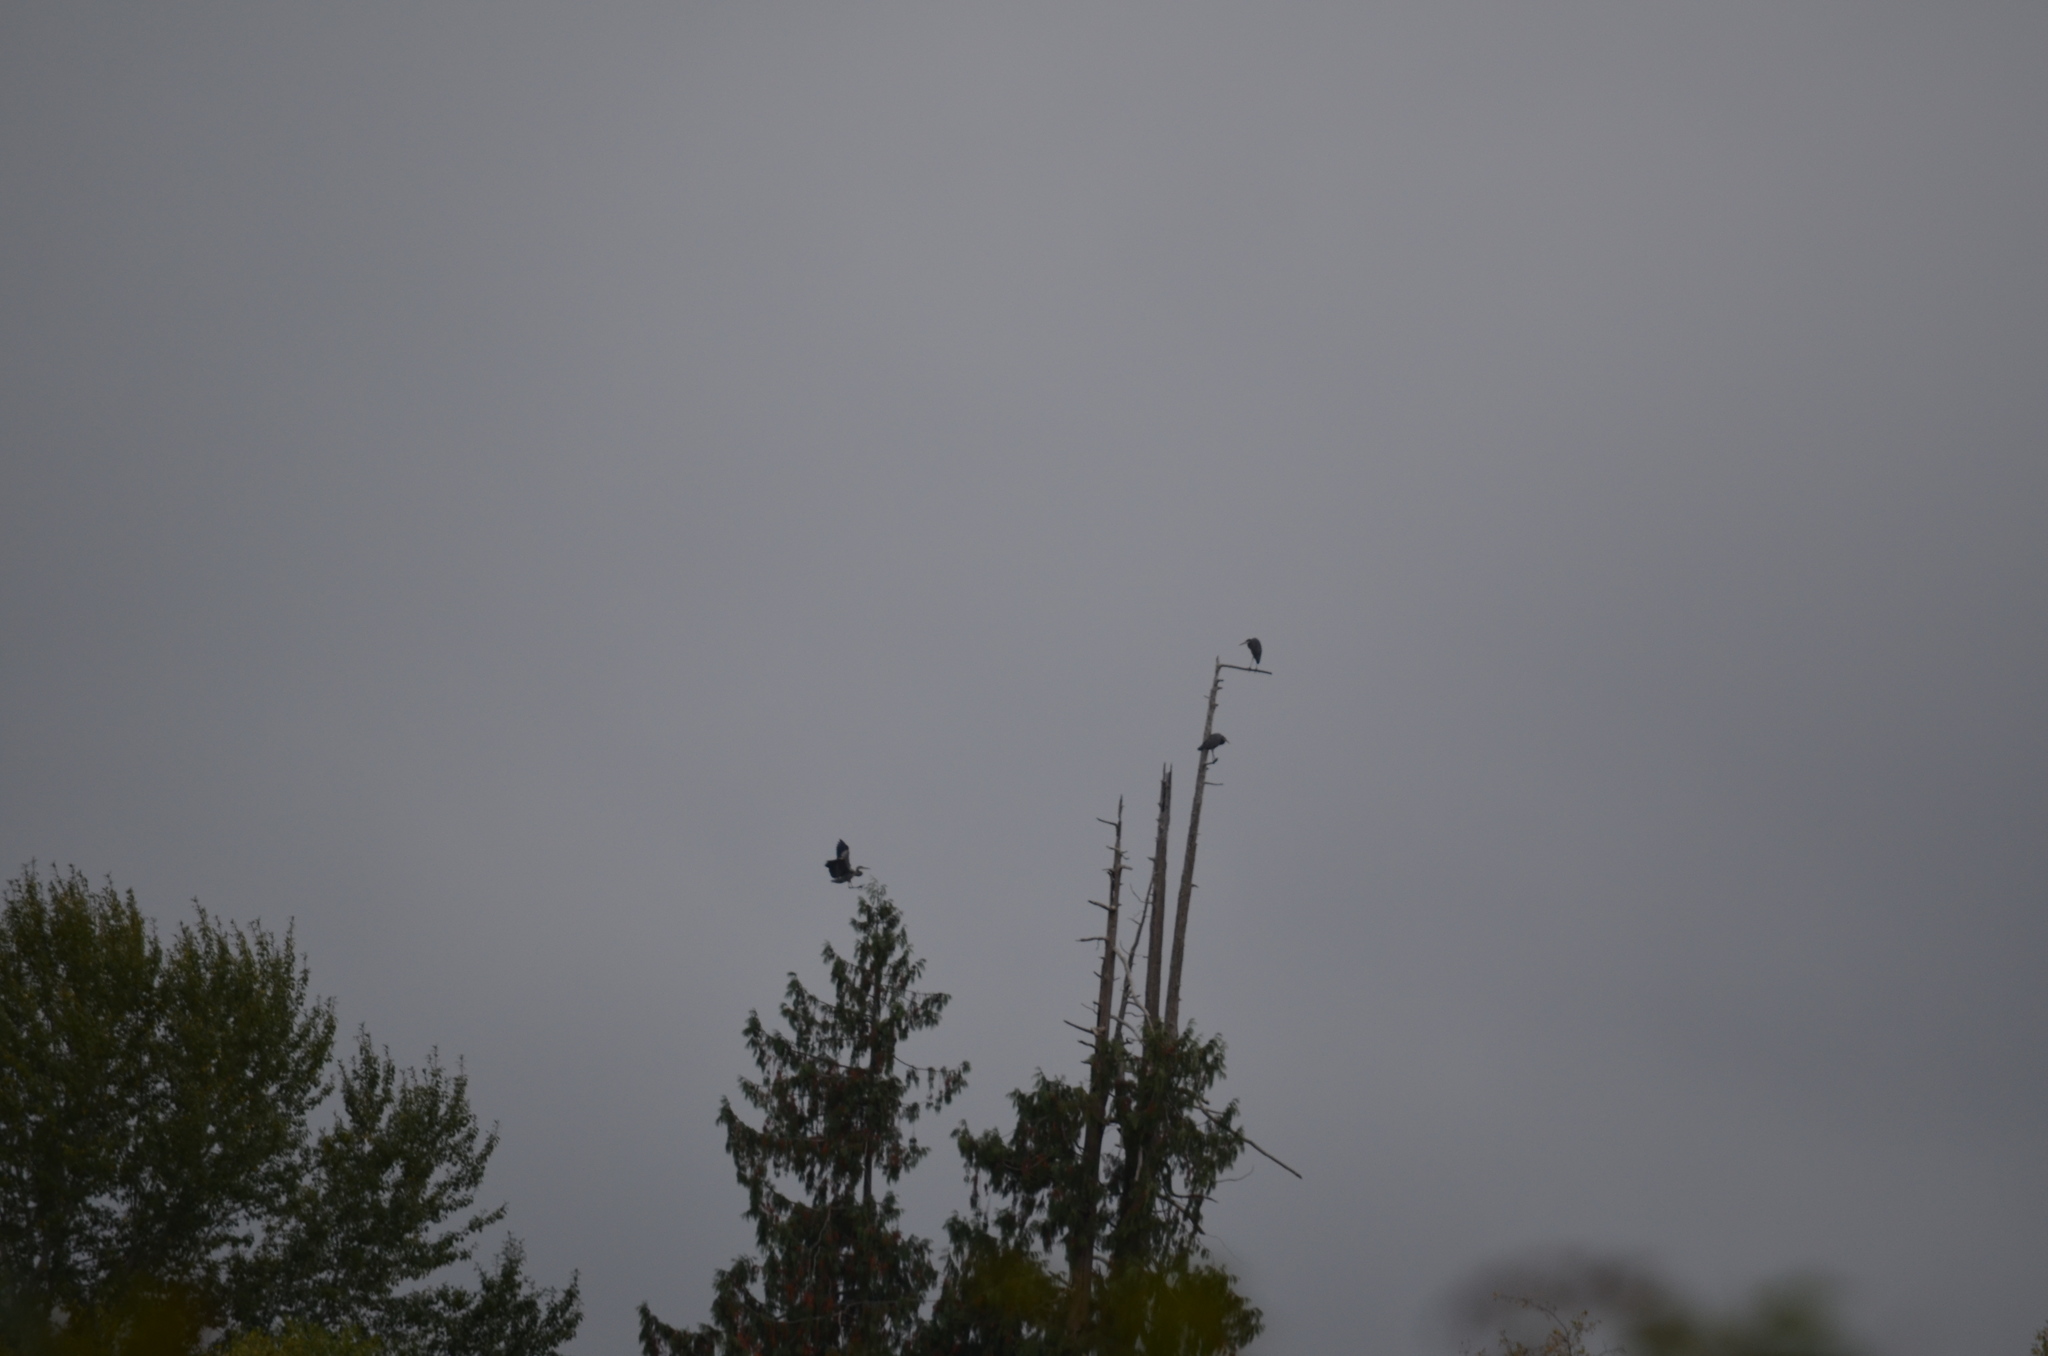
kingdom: Animalia
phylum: Chordata
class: Aves
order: Pelecaniformes
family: Ardeidae
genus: Ardea
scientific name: Ardea herodias
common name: Great blue heron
